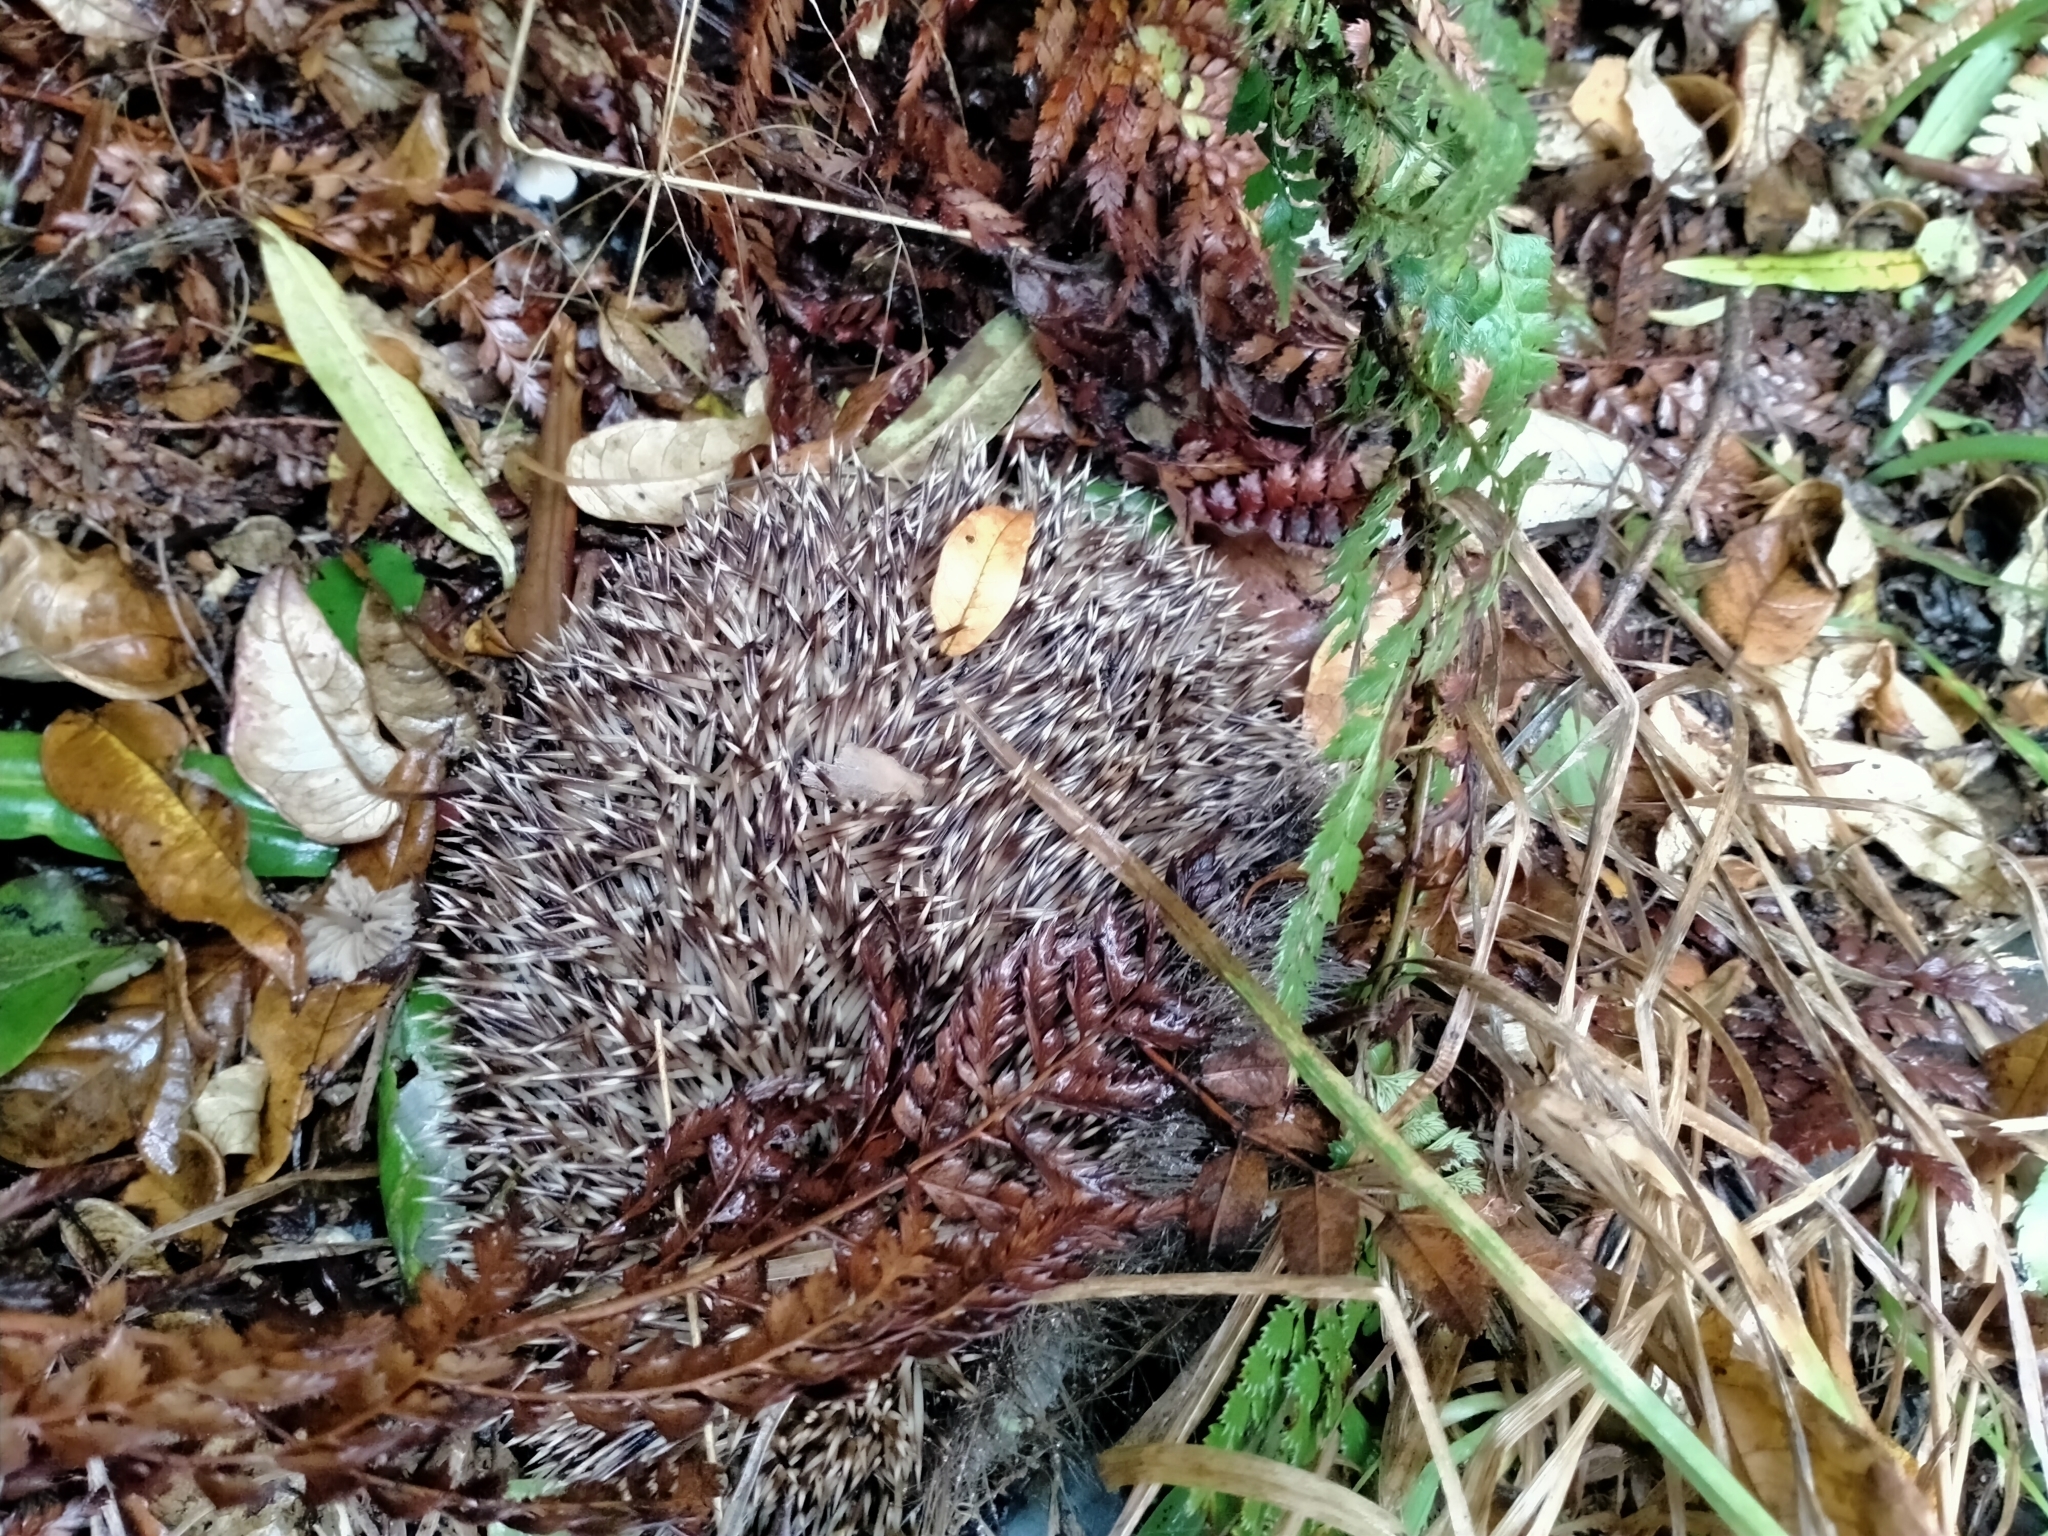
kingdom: Animalia
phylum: Chordata
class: Mammalia
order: Erinaceomorpha
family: Erinaceidae
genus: Erinaceus
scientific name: Erinaceus europaeus
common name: West european hedgehog
